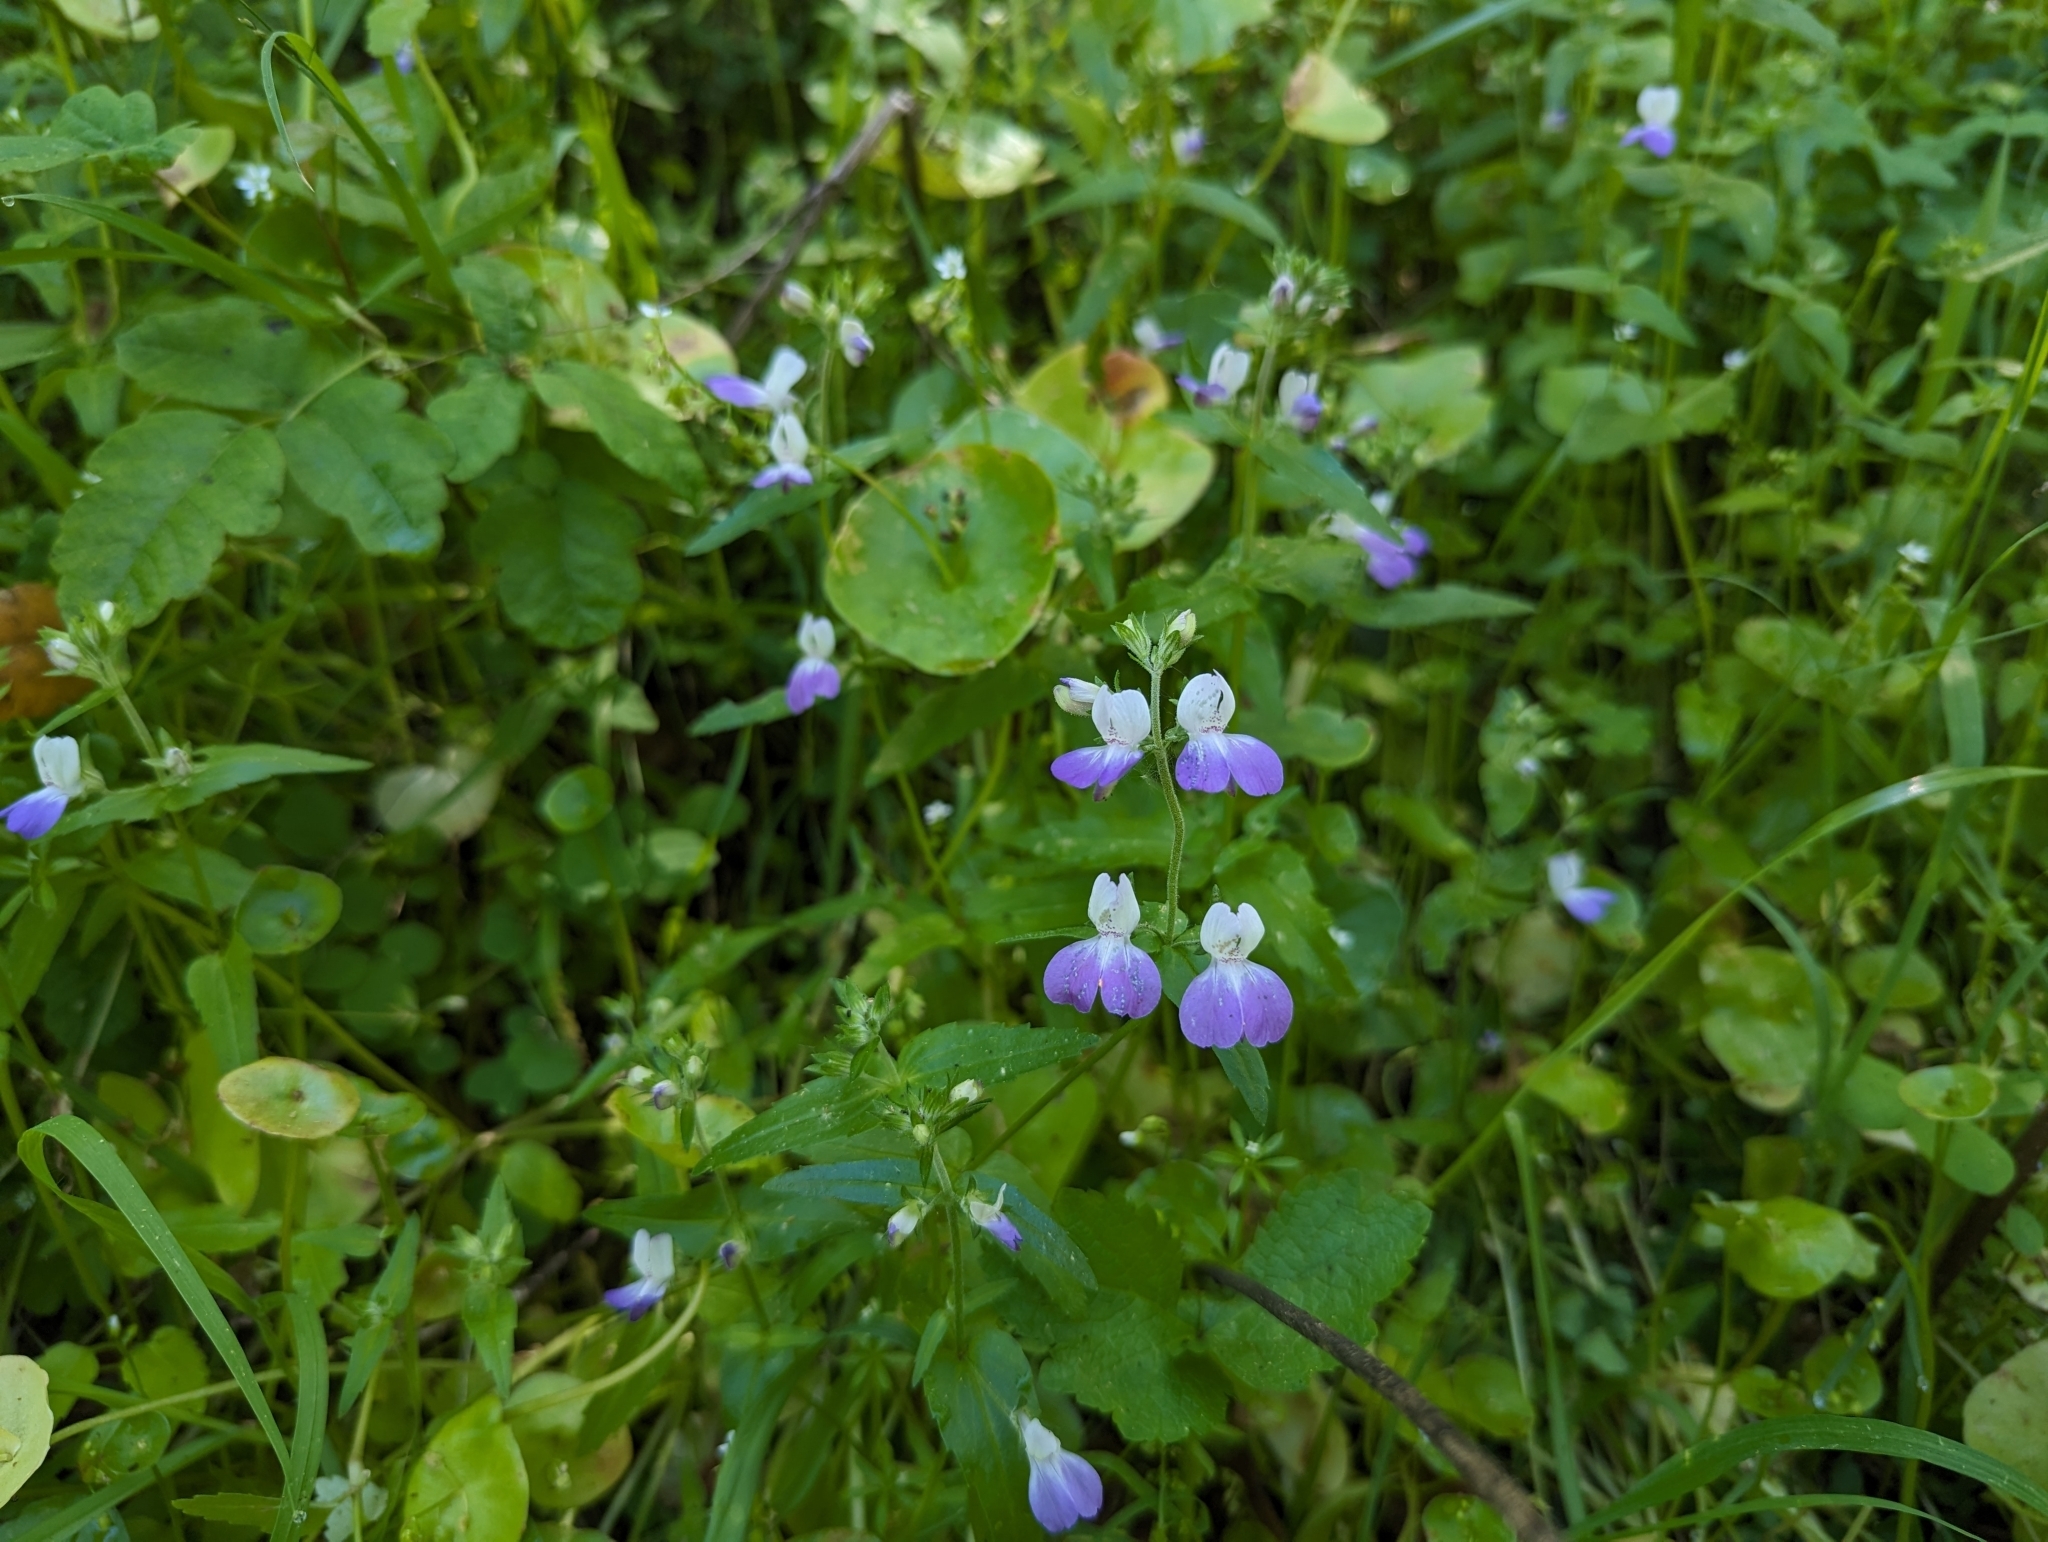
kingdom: Plantae
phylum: Tracheophyta
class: Magnoliopsida
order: Lamiales
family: Plantaginaceae
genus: Collinsia
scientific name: Collinsia multicolor
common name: San francisco collinsia
